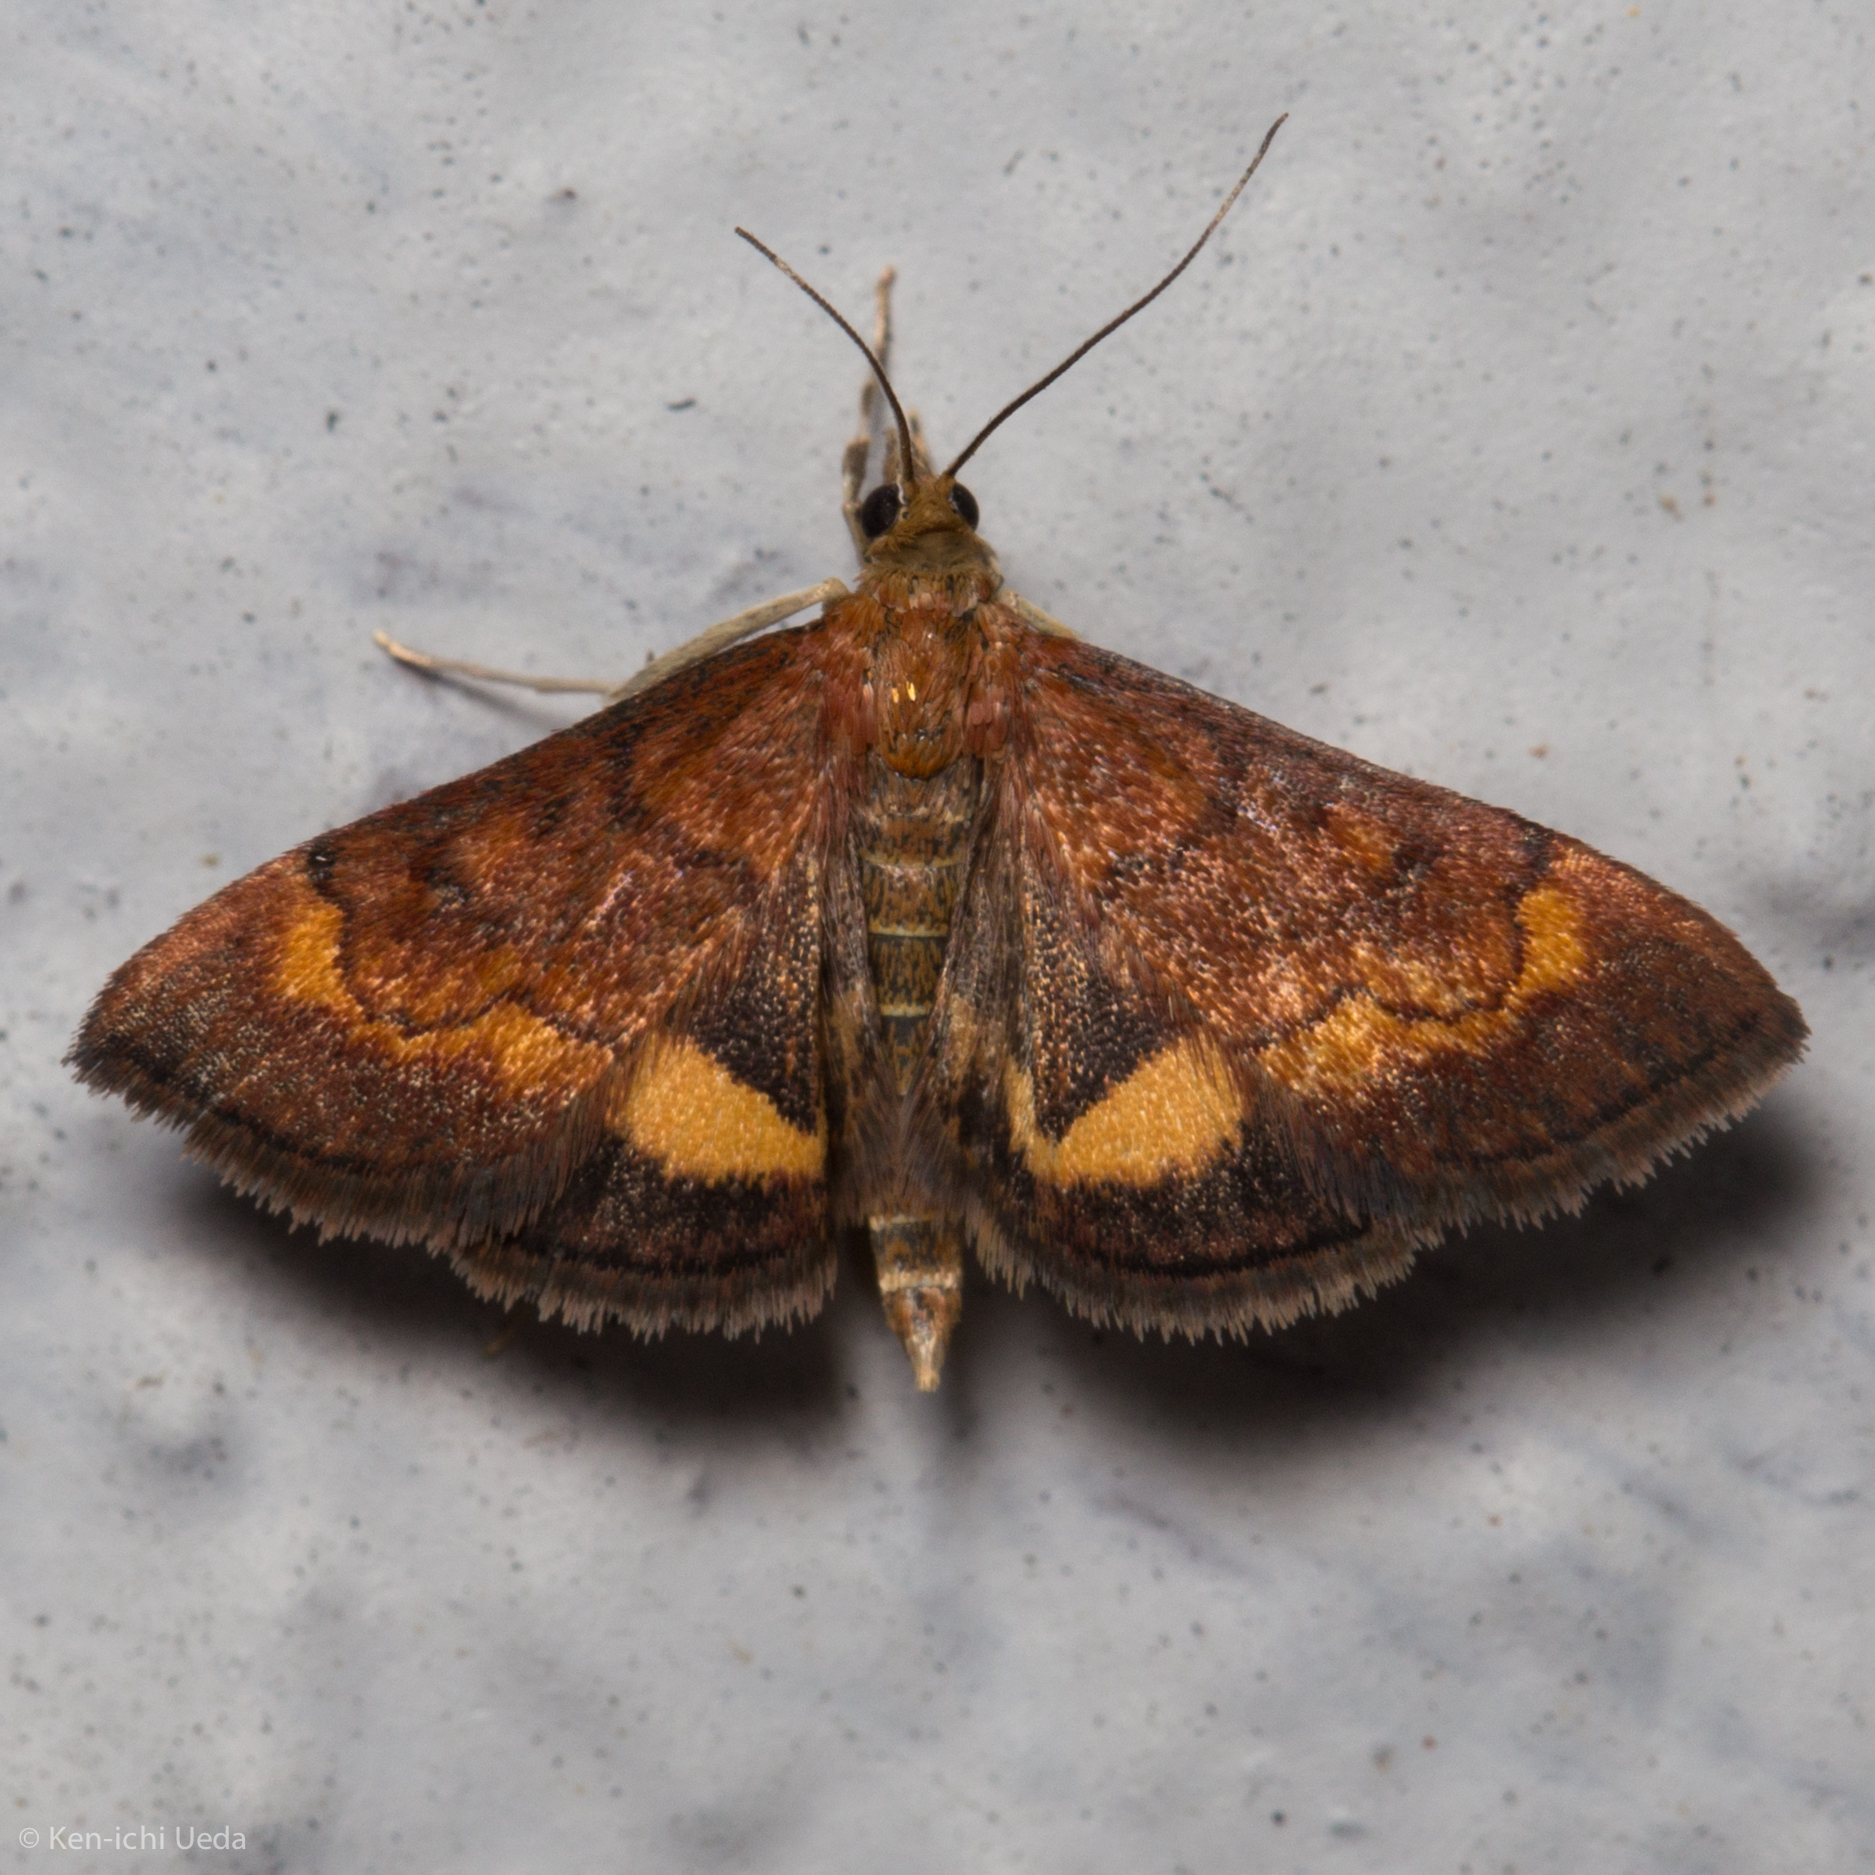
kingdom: Animalia
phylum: Arthropoda
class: Insecta
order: Lepidoptera
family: Crambidae
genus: Pyrausta
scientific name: Pyrausta californicalis
